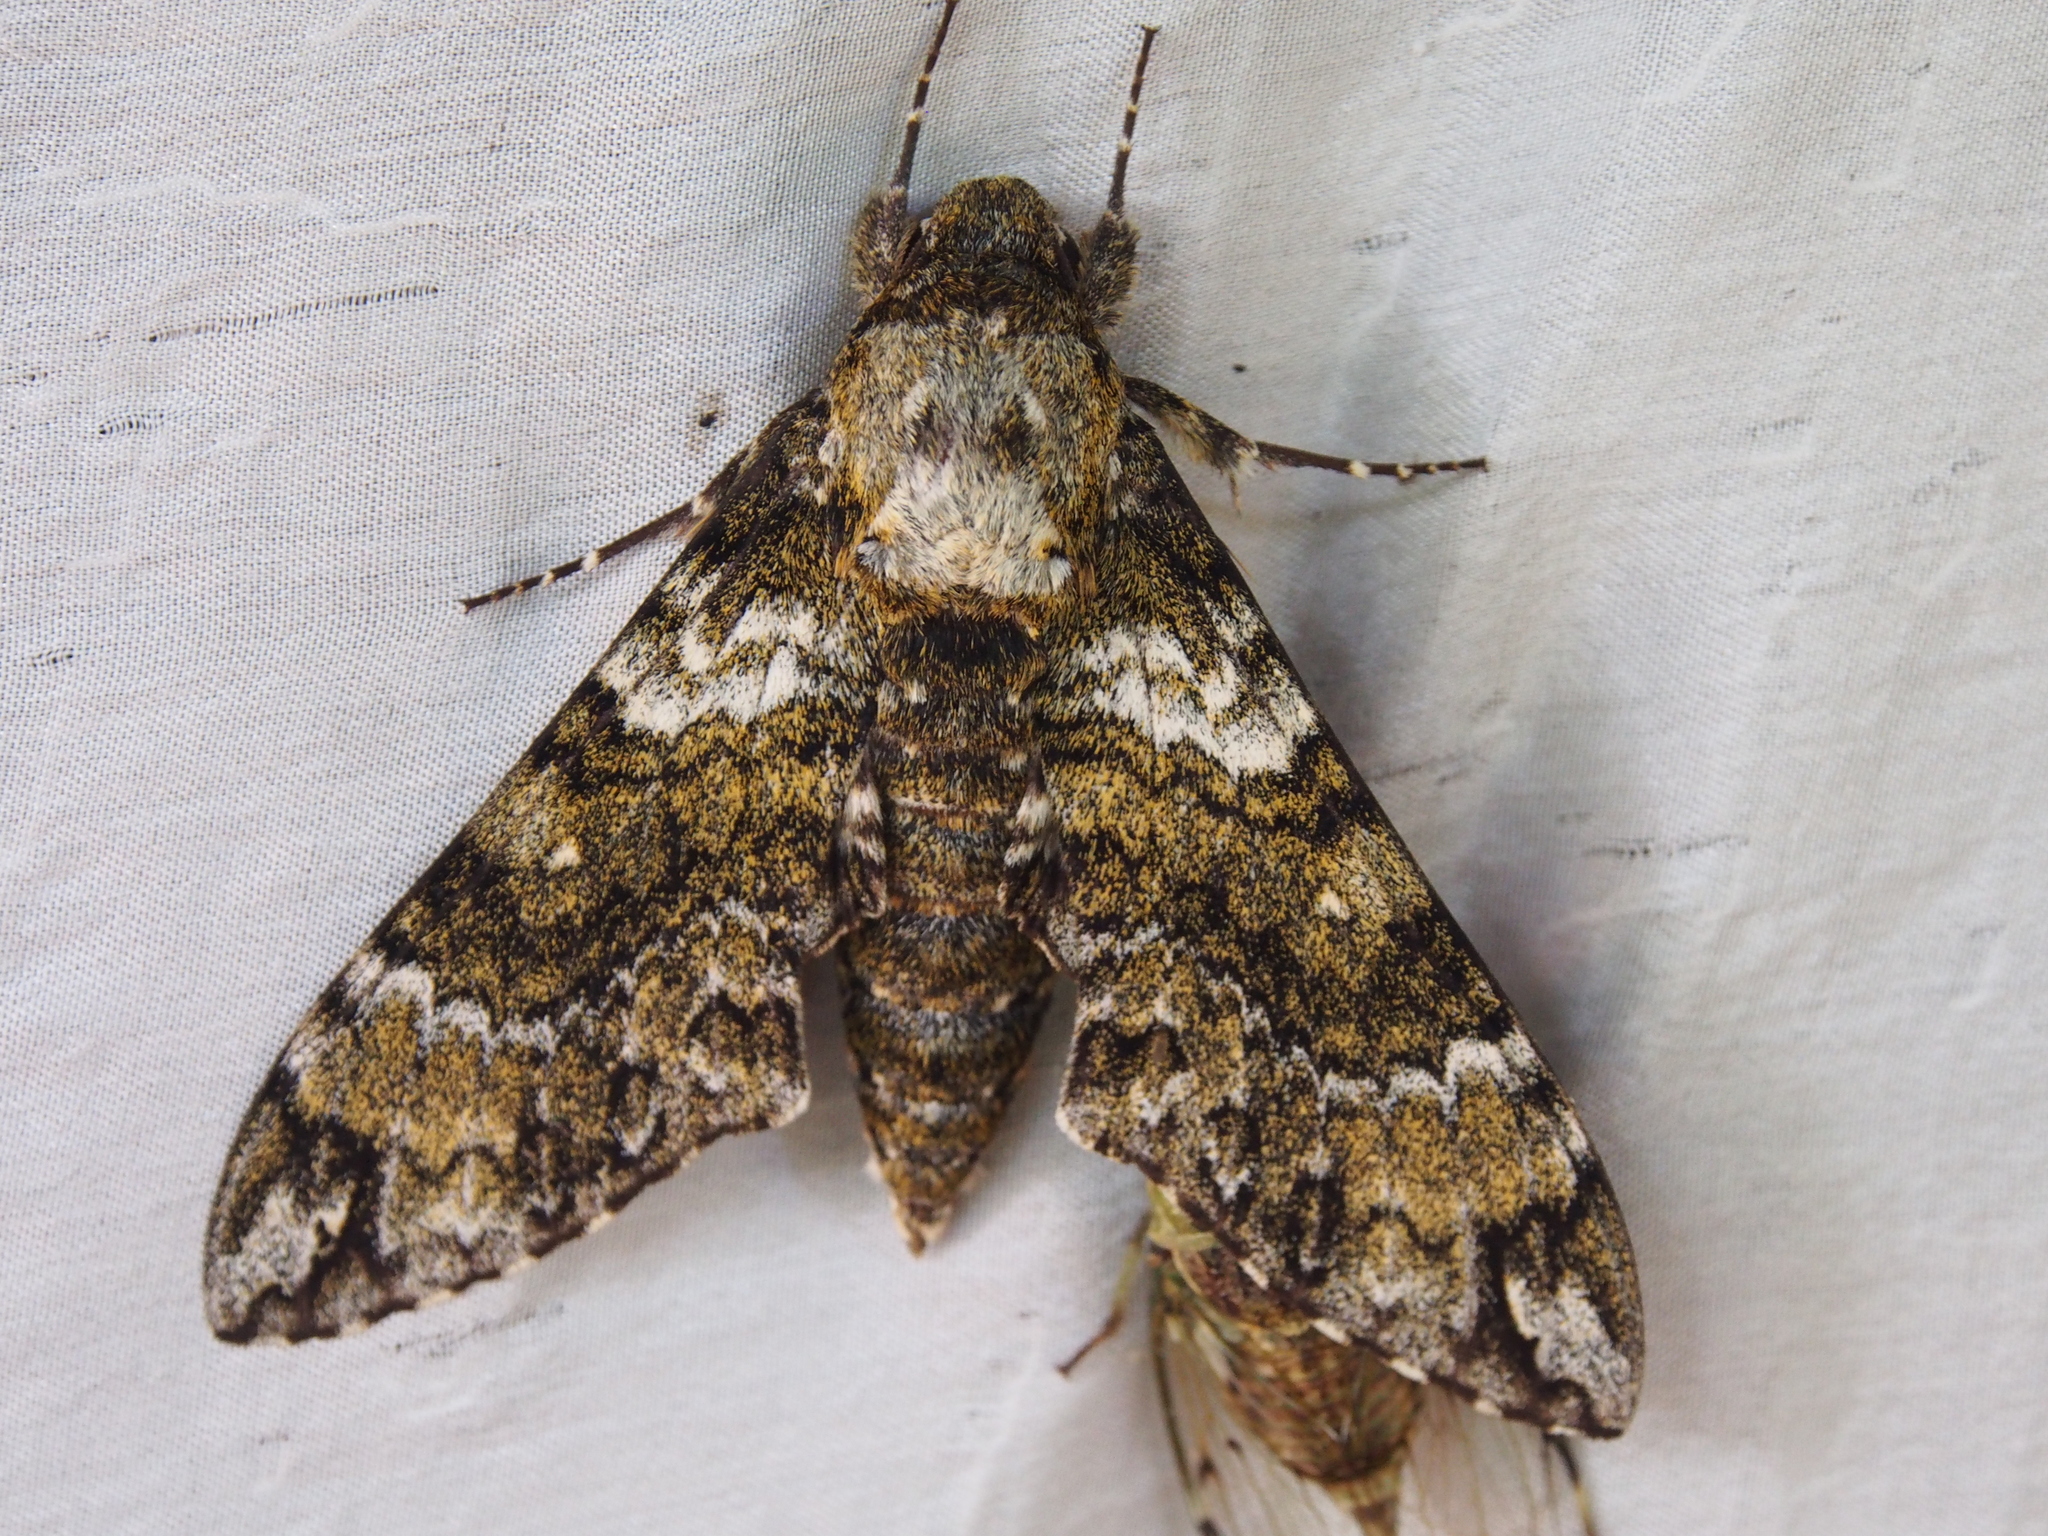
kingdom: Animalia
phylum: Arthropoda
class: Insecta
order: Lepidoptera
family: Sphingidae
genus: Manduca
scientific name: Manduca corallina
